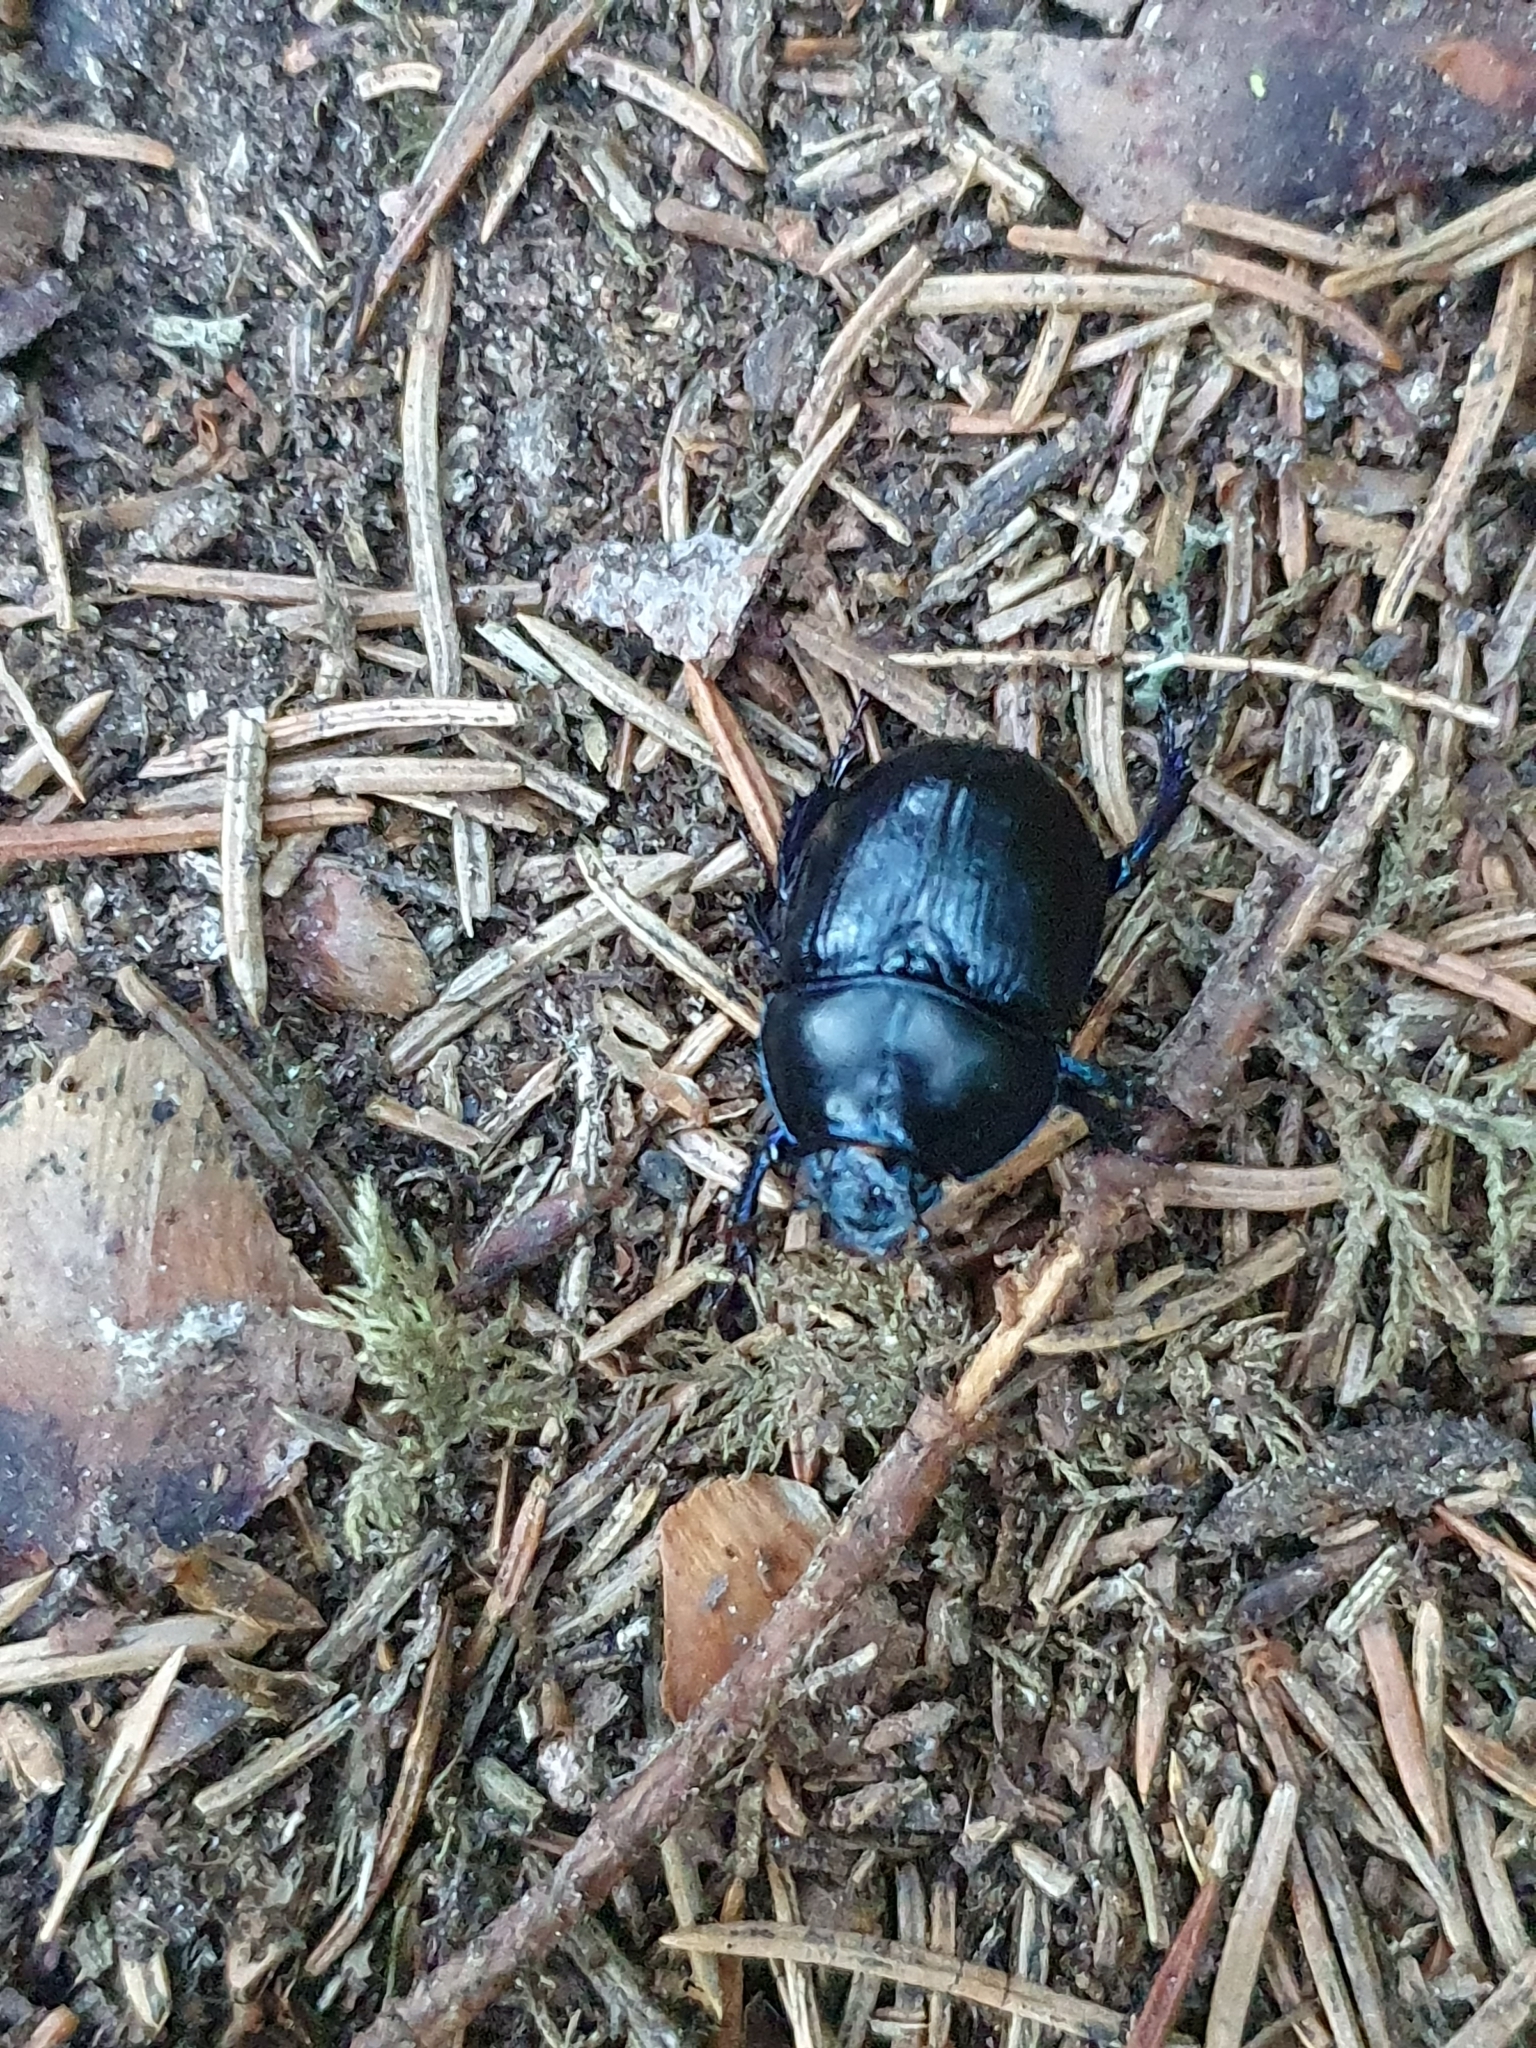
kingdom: Animalia
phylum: Arthropoda
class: Insecta
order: Coleoptera
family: Geotrupidae
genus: Anoplotrupes
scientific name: Anoplotrupes stercorosus
